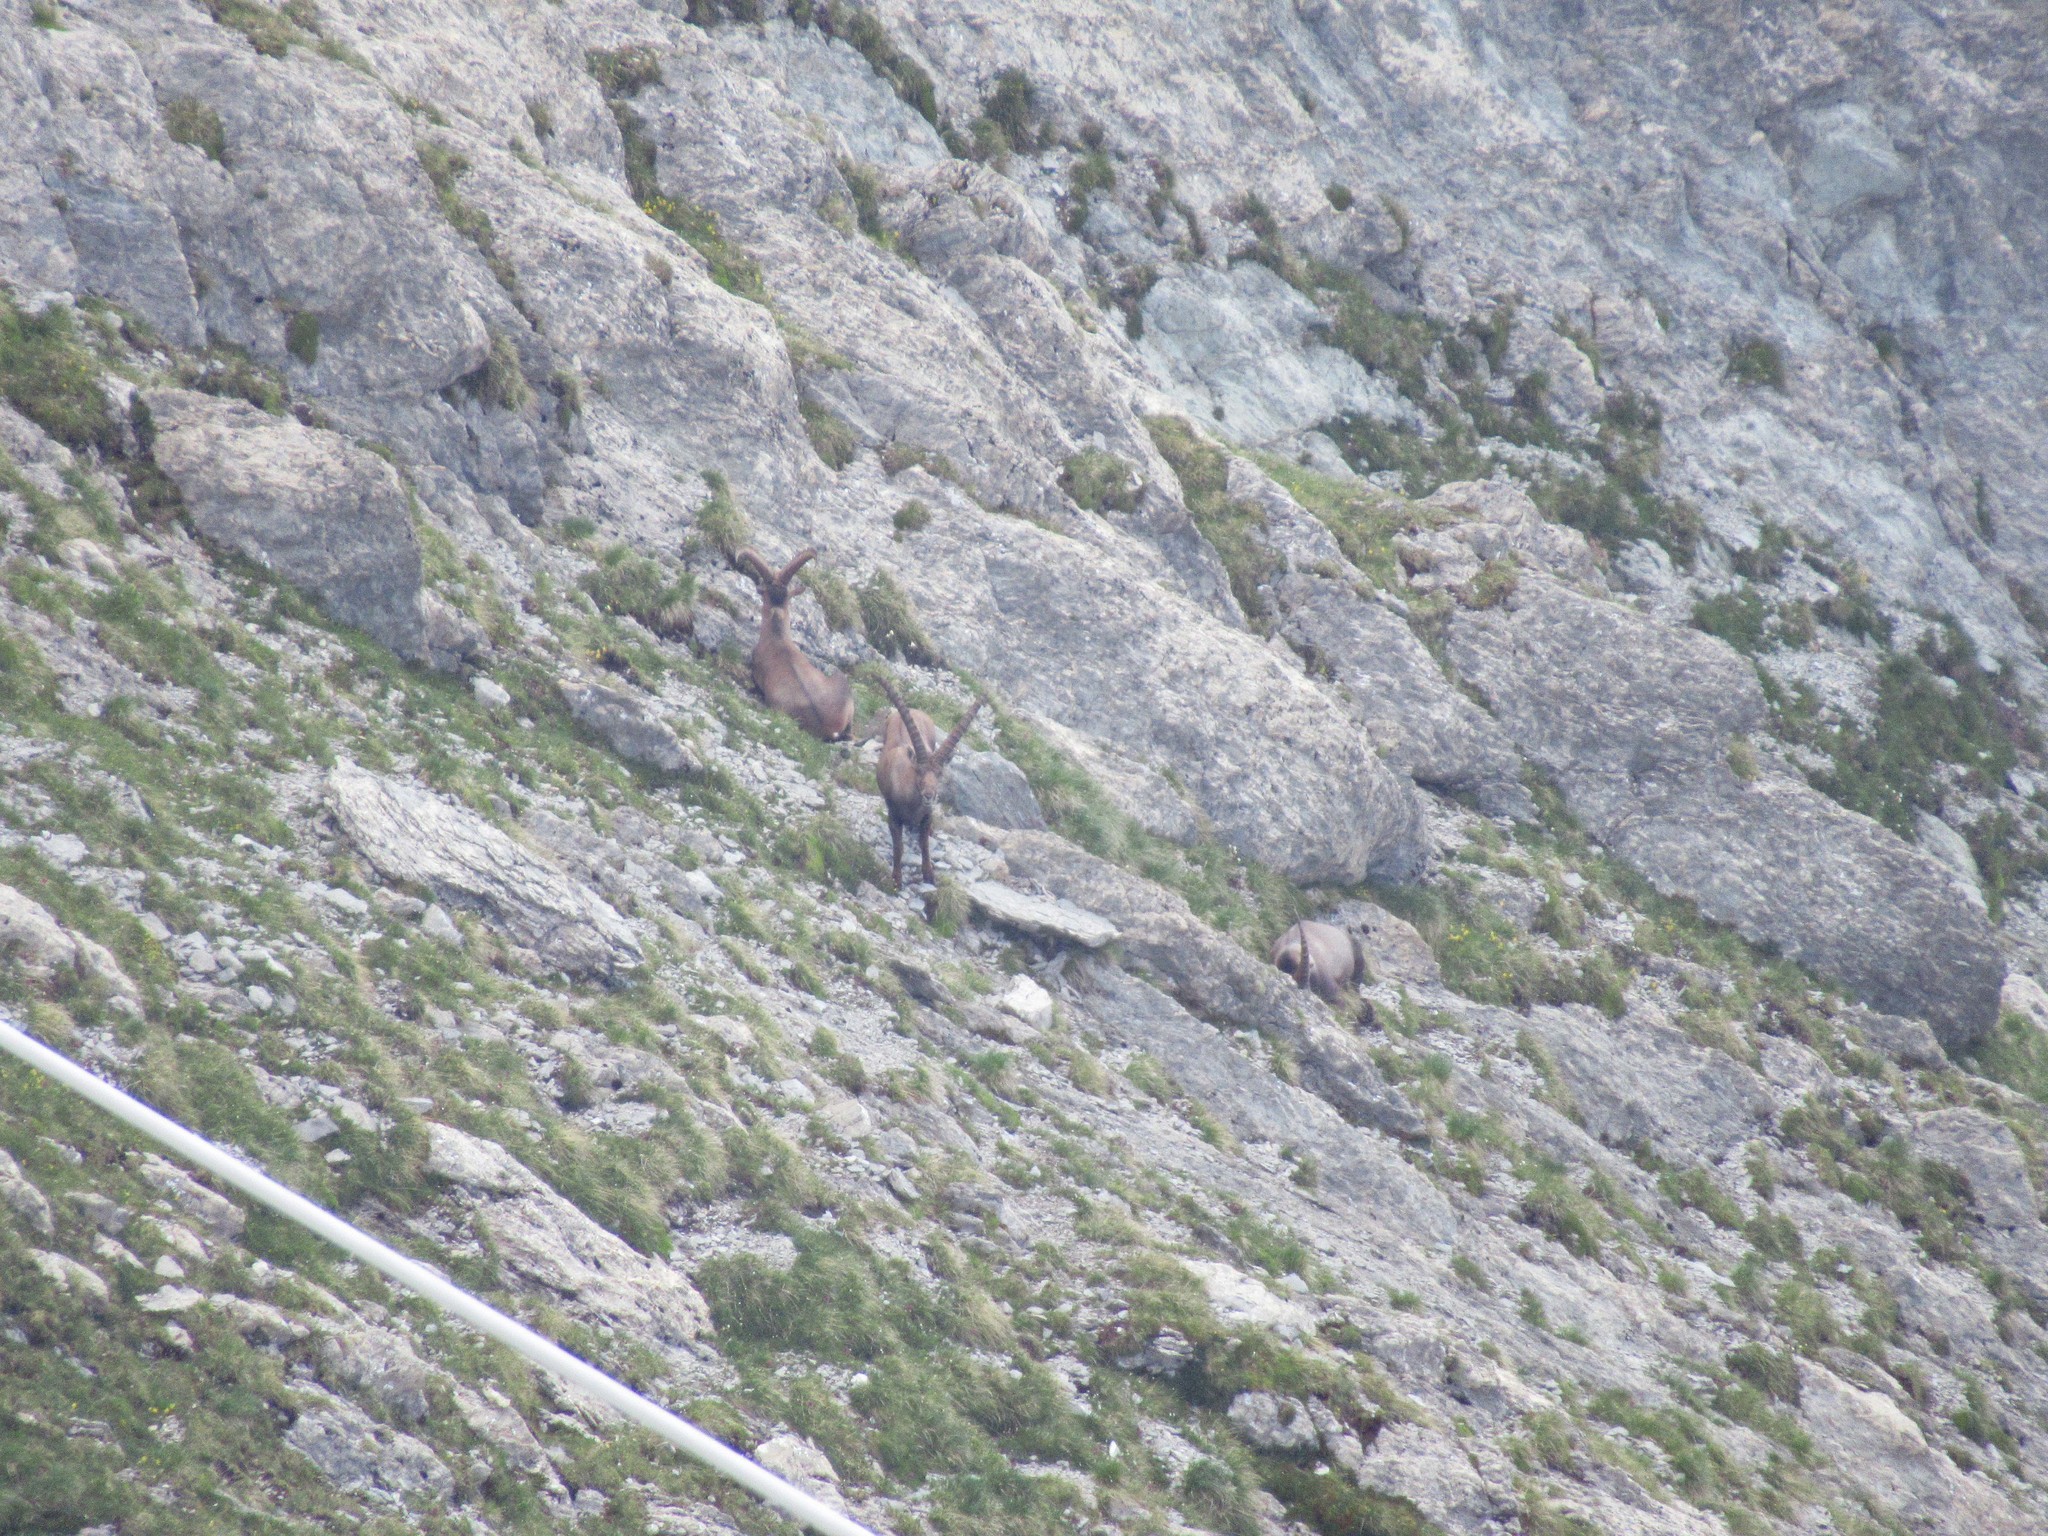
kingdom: Animalia
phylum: Chordata
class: Mammalia
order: Artiodactyla
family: Bovidae
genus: Capra
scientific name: Capra ibex
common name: Alpine ibex
